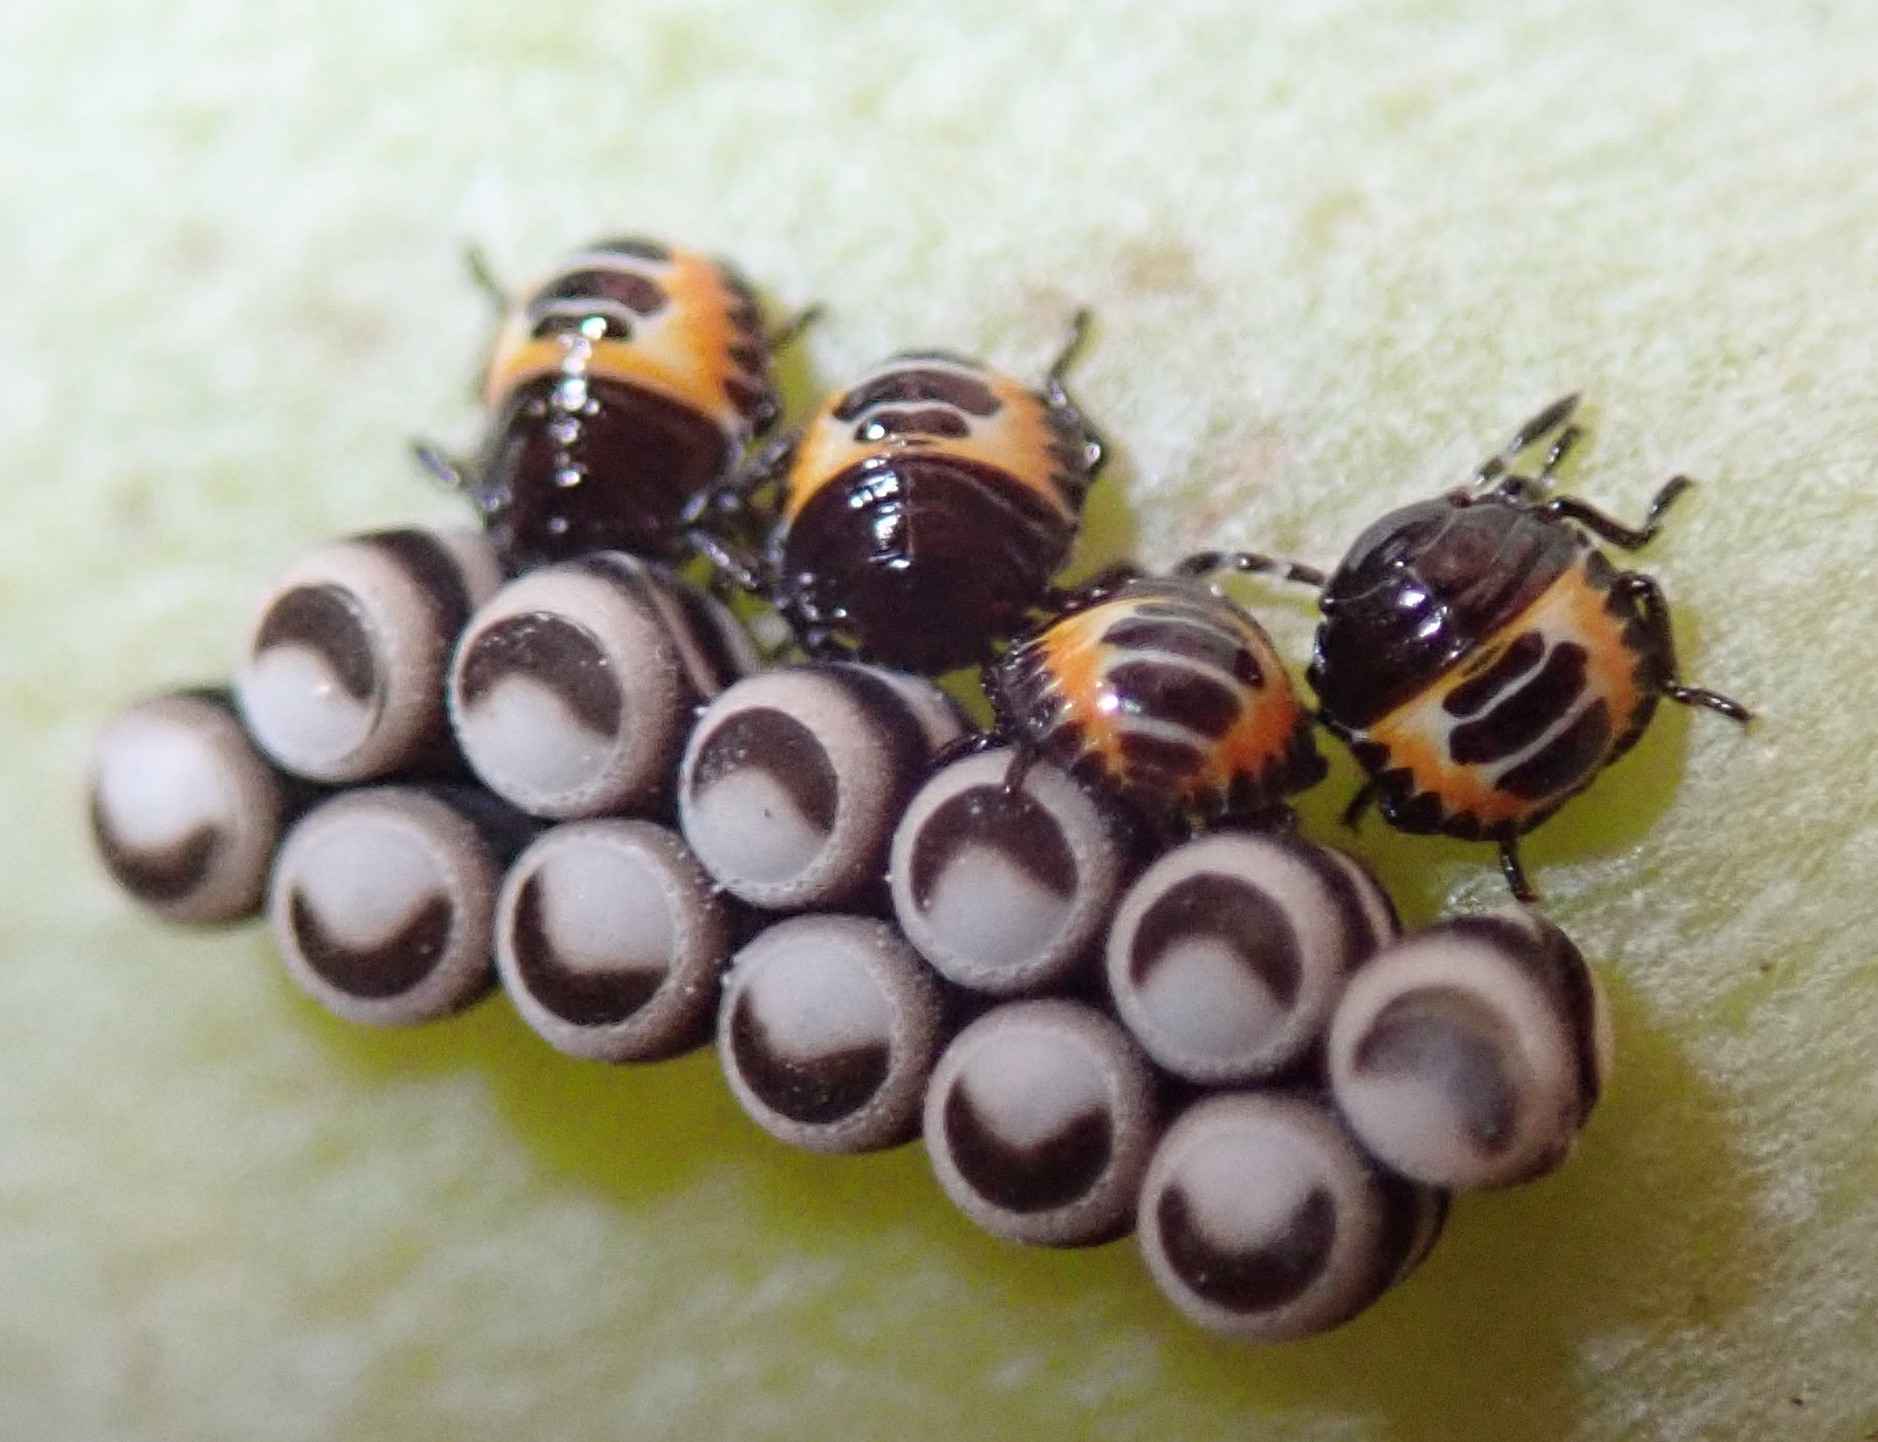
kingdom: Animalia
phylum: Arthropoda
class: Insecta
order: Hemiptera
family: Pentatomidae
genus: Murgantia
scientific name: Murgantia histrionica
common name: Harlequin bug
